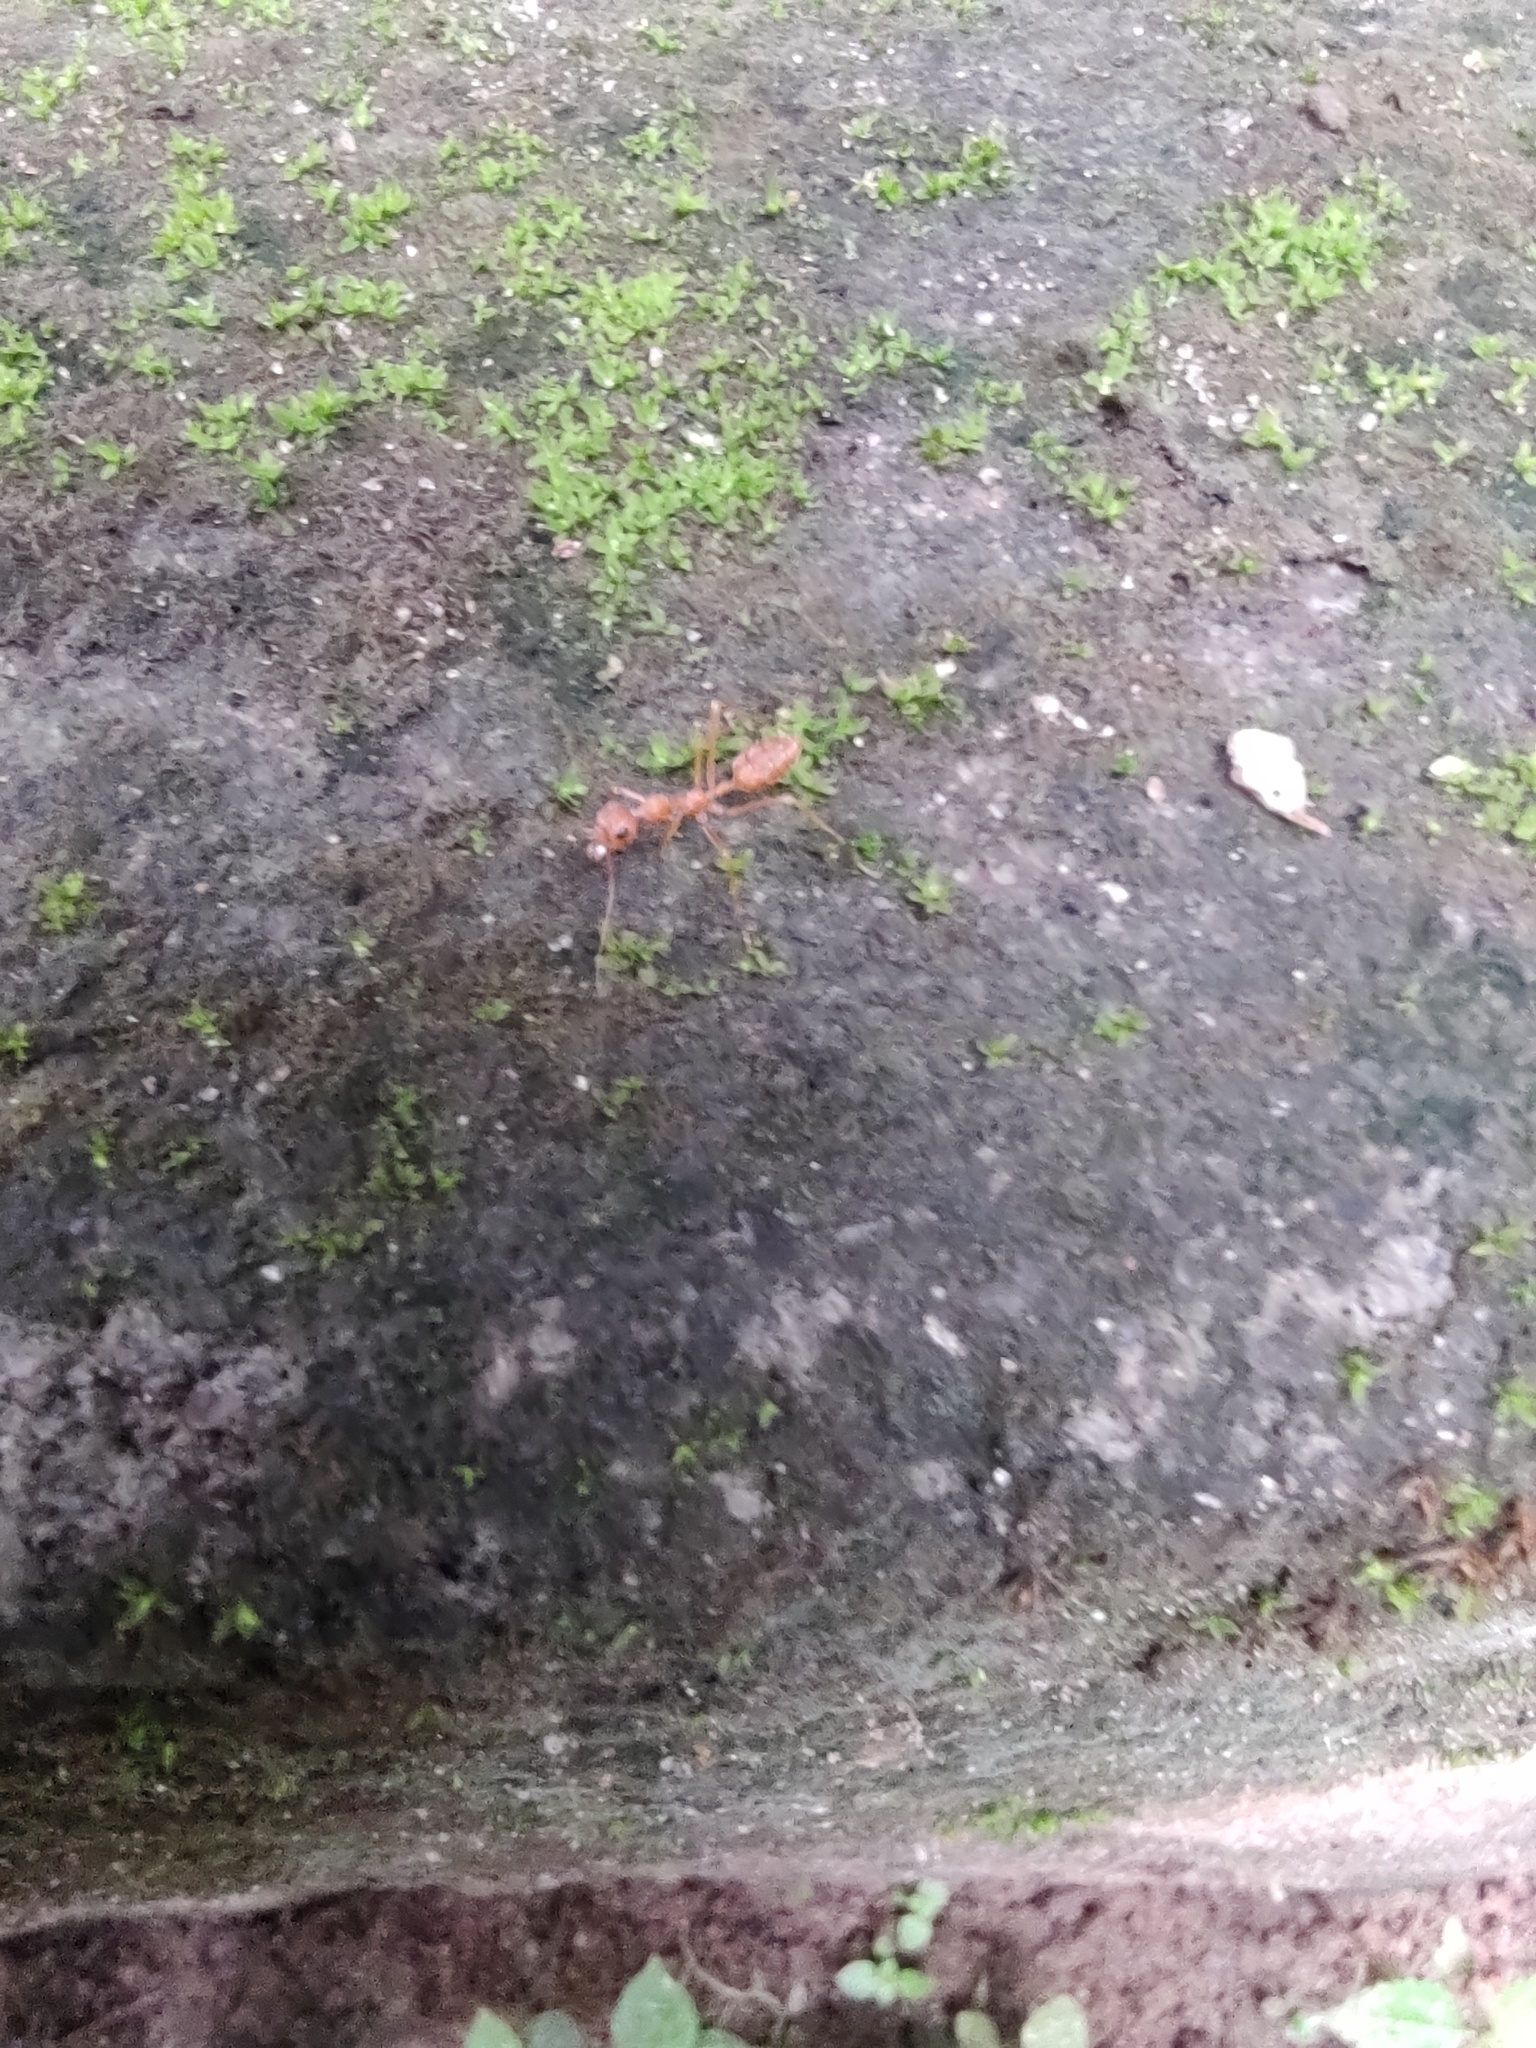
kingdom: Animalia
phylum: Arthropoda
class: Insecta
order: Hymenoptera
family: Formicidae
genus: Oecophylla
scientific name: Oecophylla smaragdina
